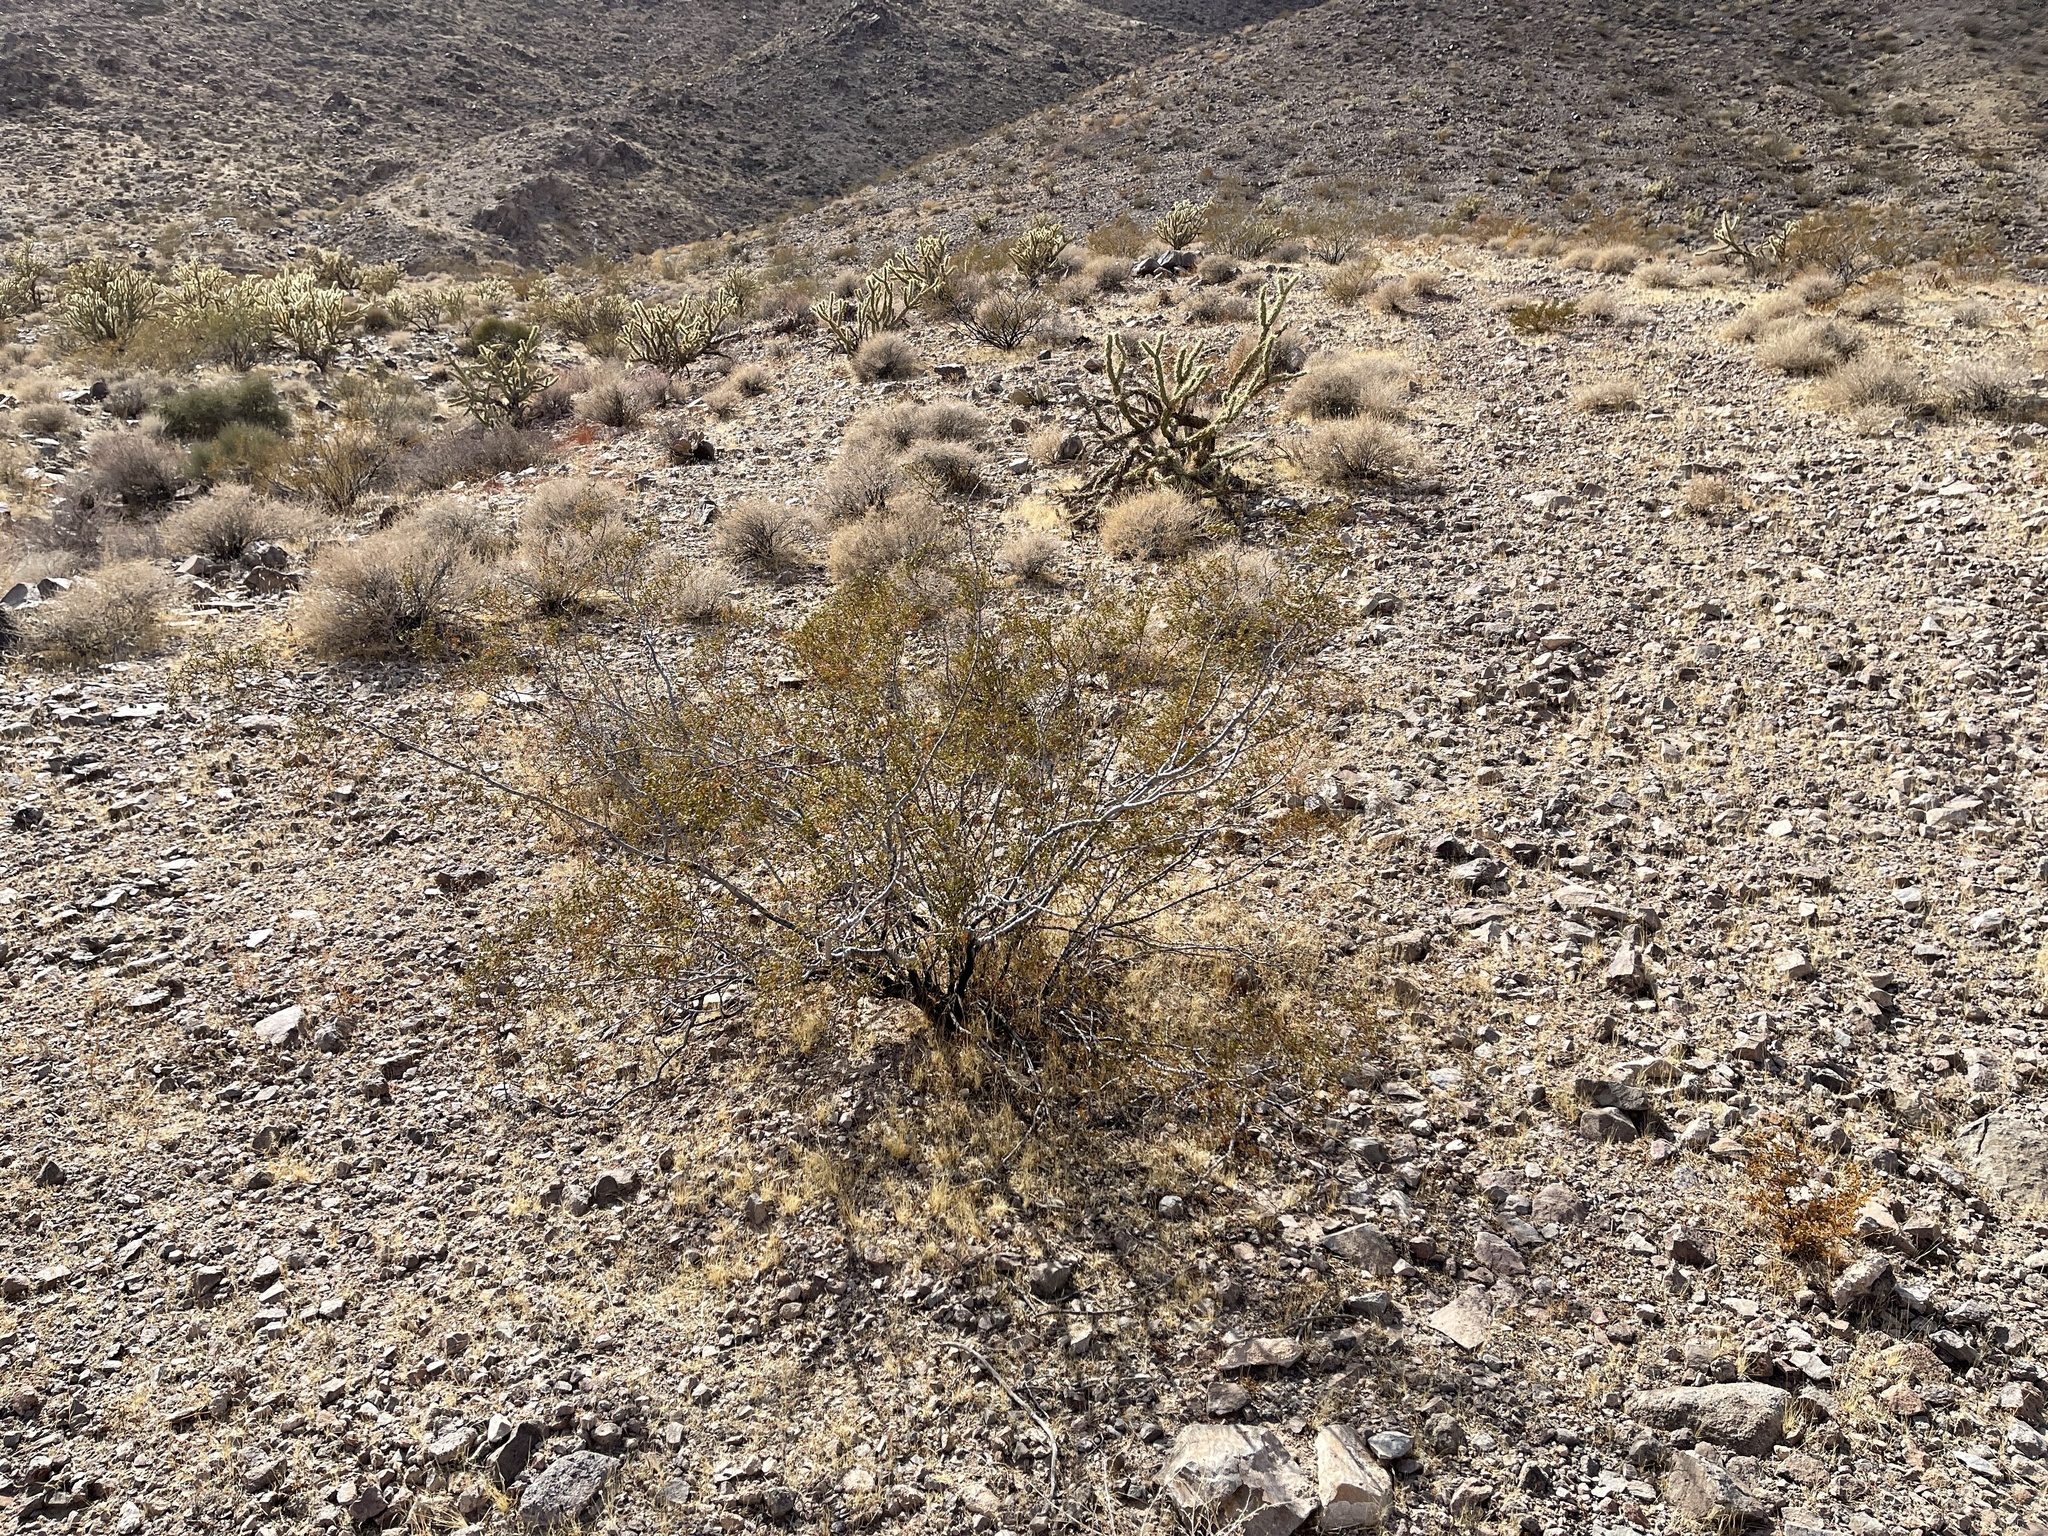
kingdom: Plantae
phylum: Tracheophyta
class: Magnoliopsida
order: Zygophyllales
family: Zygophyllaceae
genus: Larrea
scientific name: Larrea tridentata
